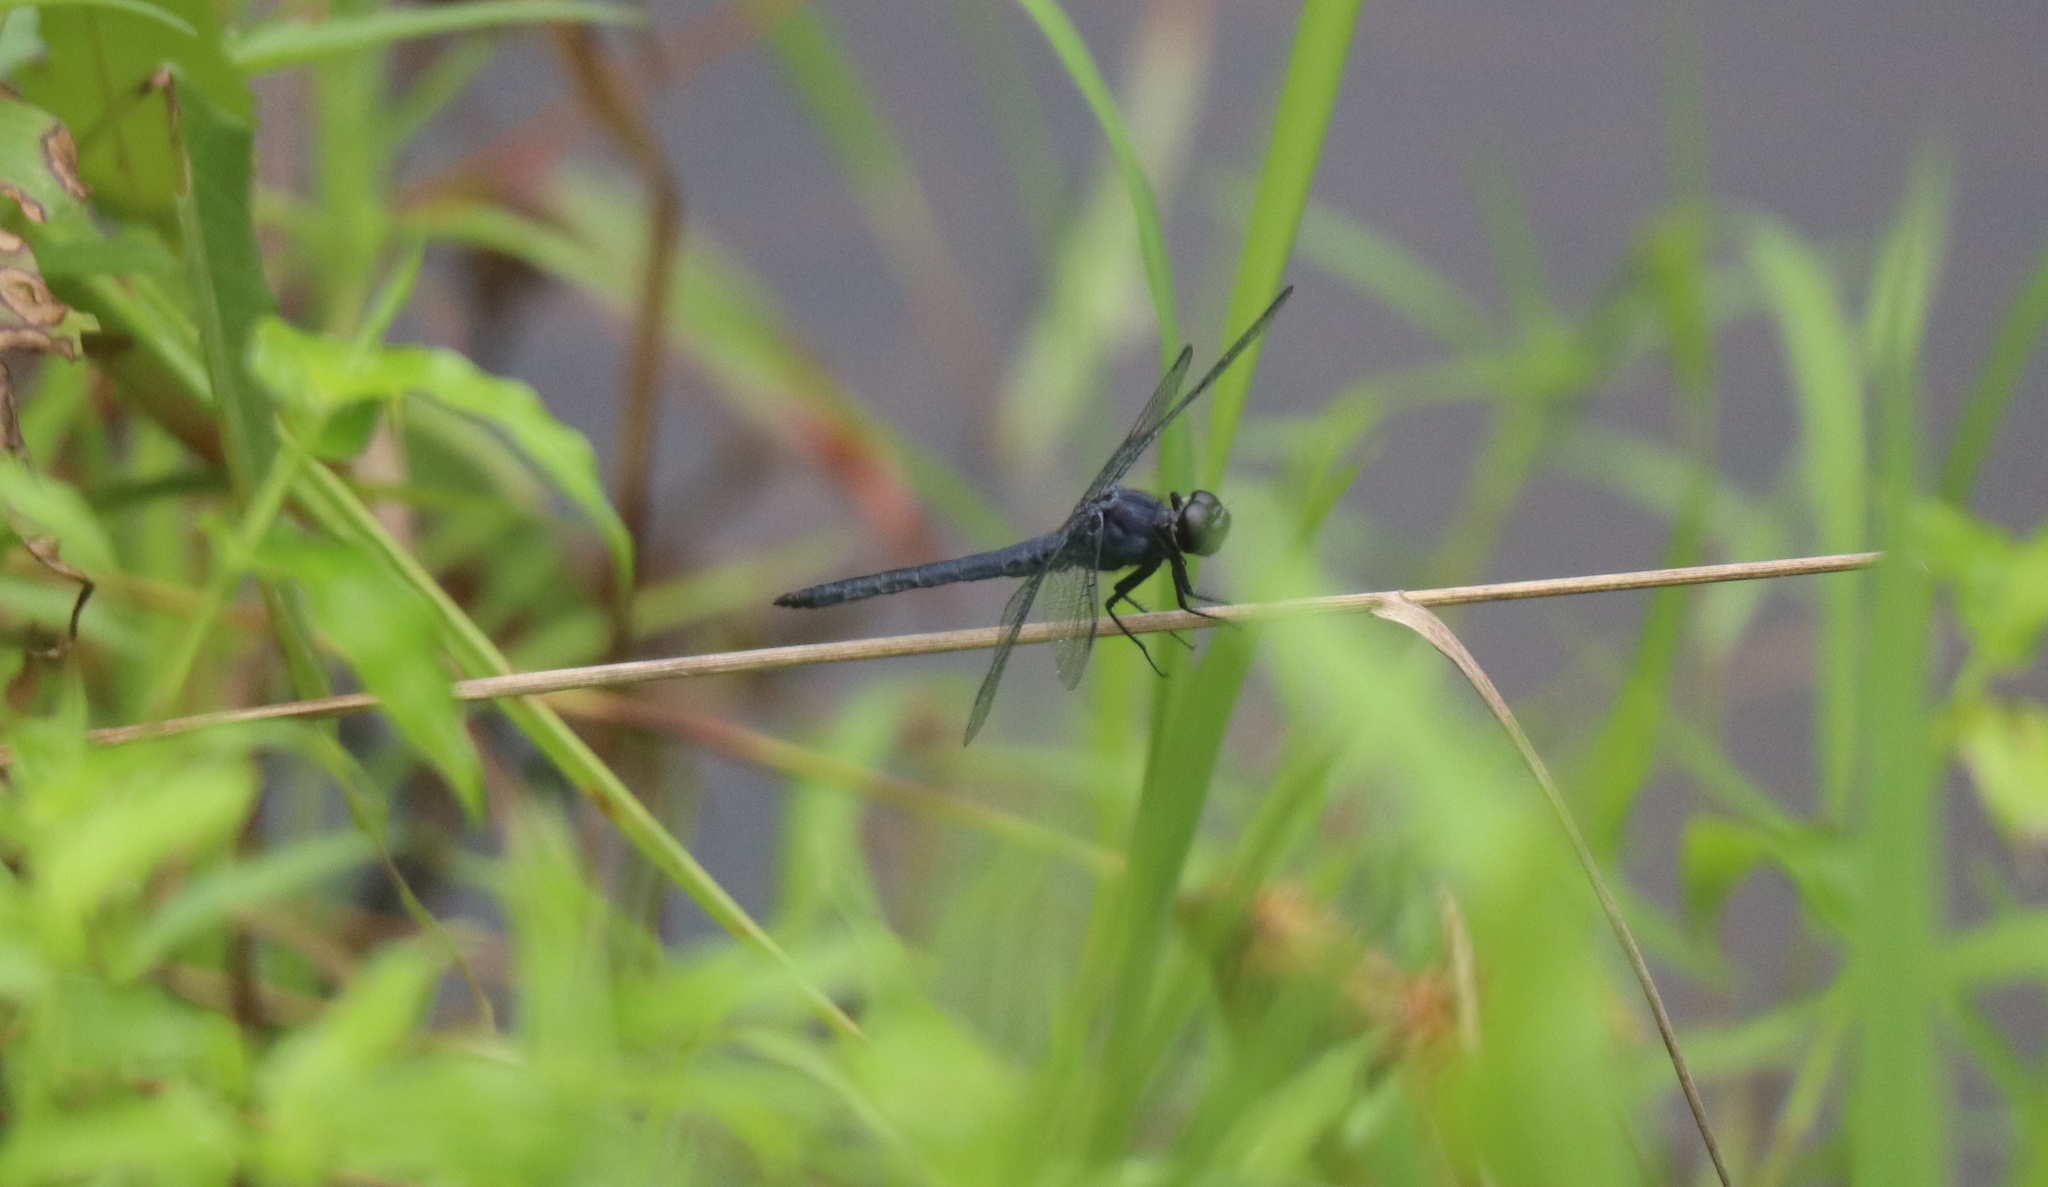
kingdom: Animalia
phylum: Arthropoda
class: Insecta
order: Odonata
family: Libellulidae
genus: Libellula
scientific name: Libellula incesta
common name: Slaty skimmer
